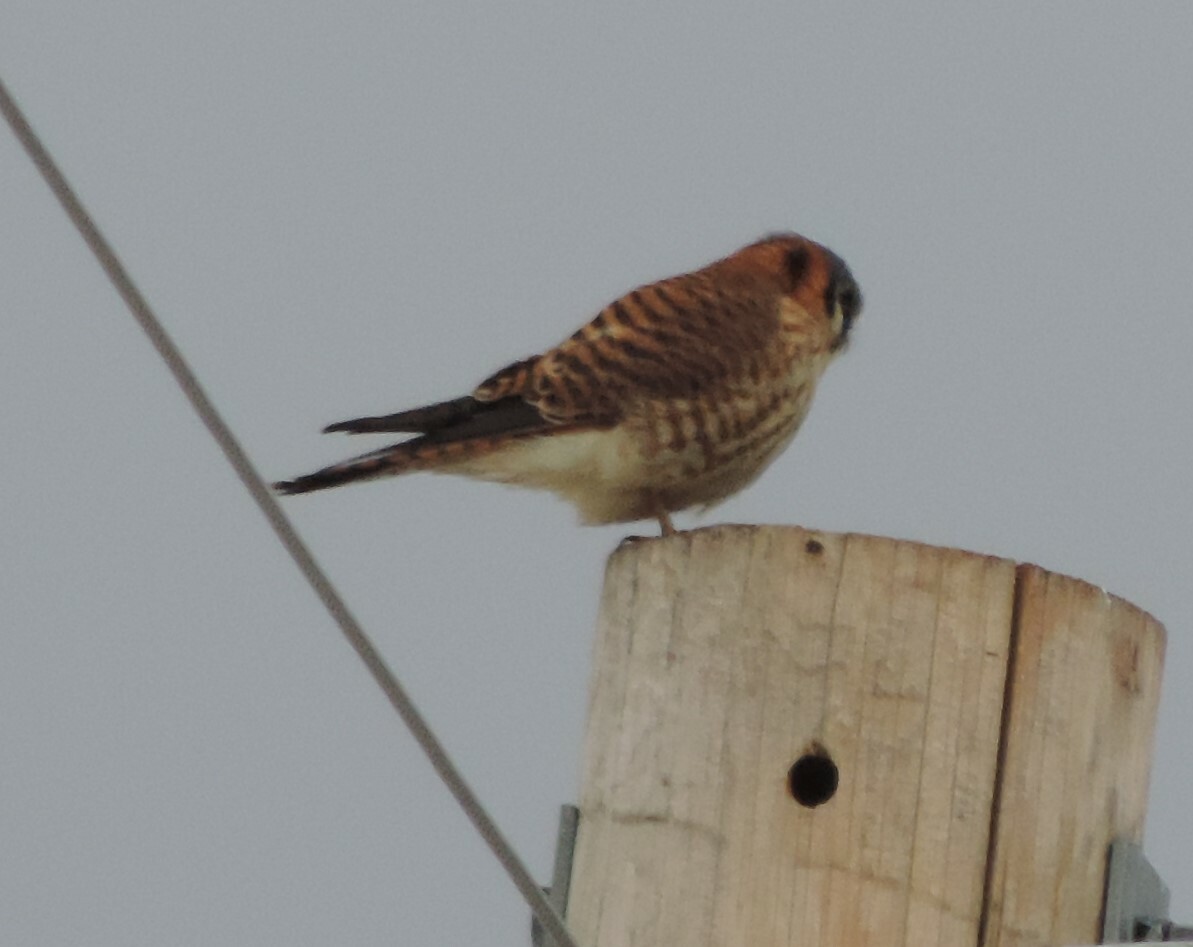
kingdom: Animalia
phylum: Chordata
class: Aves
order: Falconiformes
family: Falconidae
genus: Falco
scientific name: Falco sparverius
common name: American kestrel
